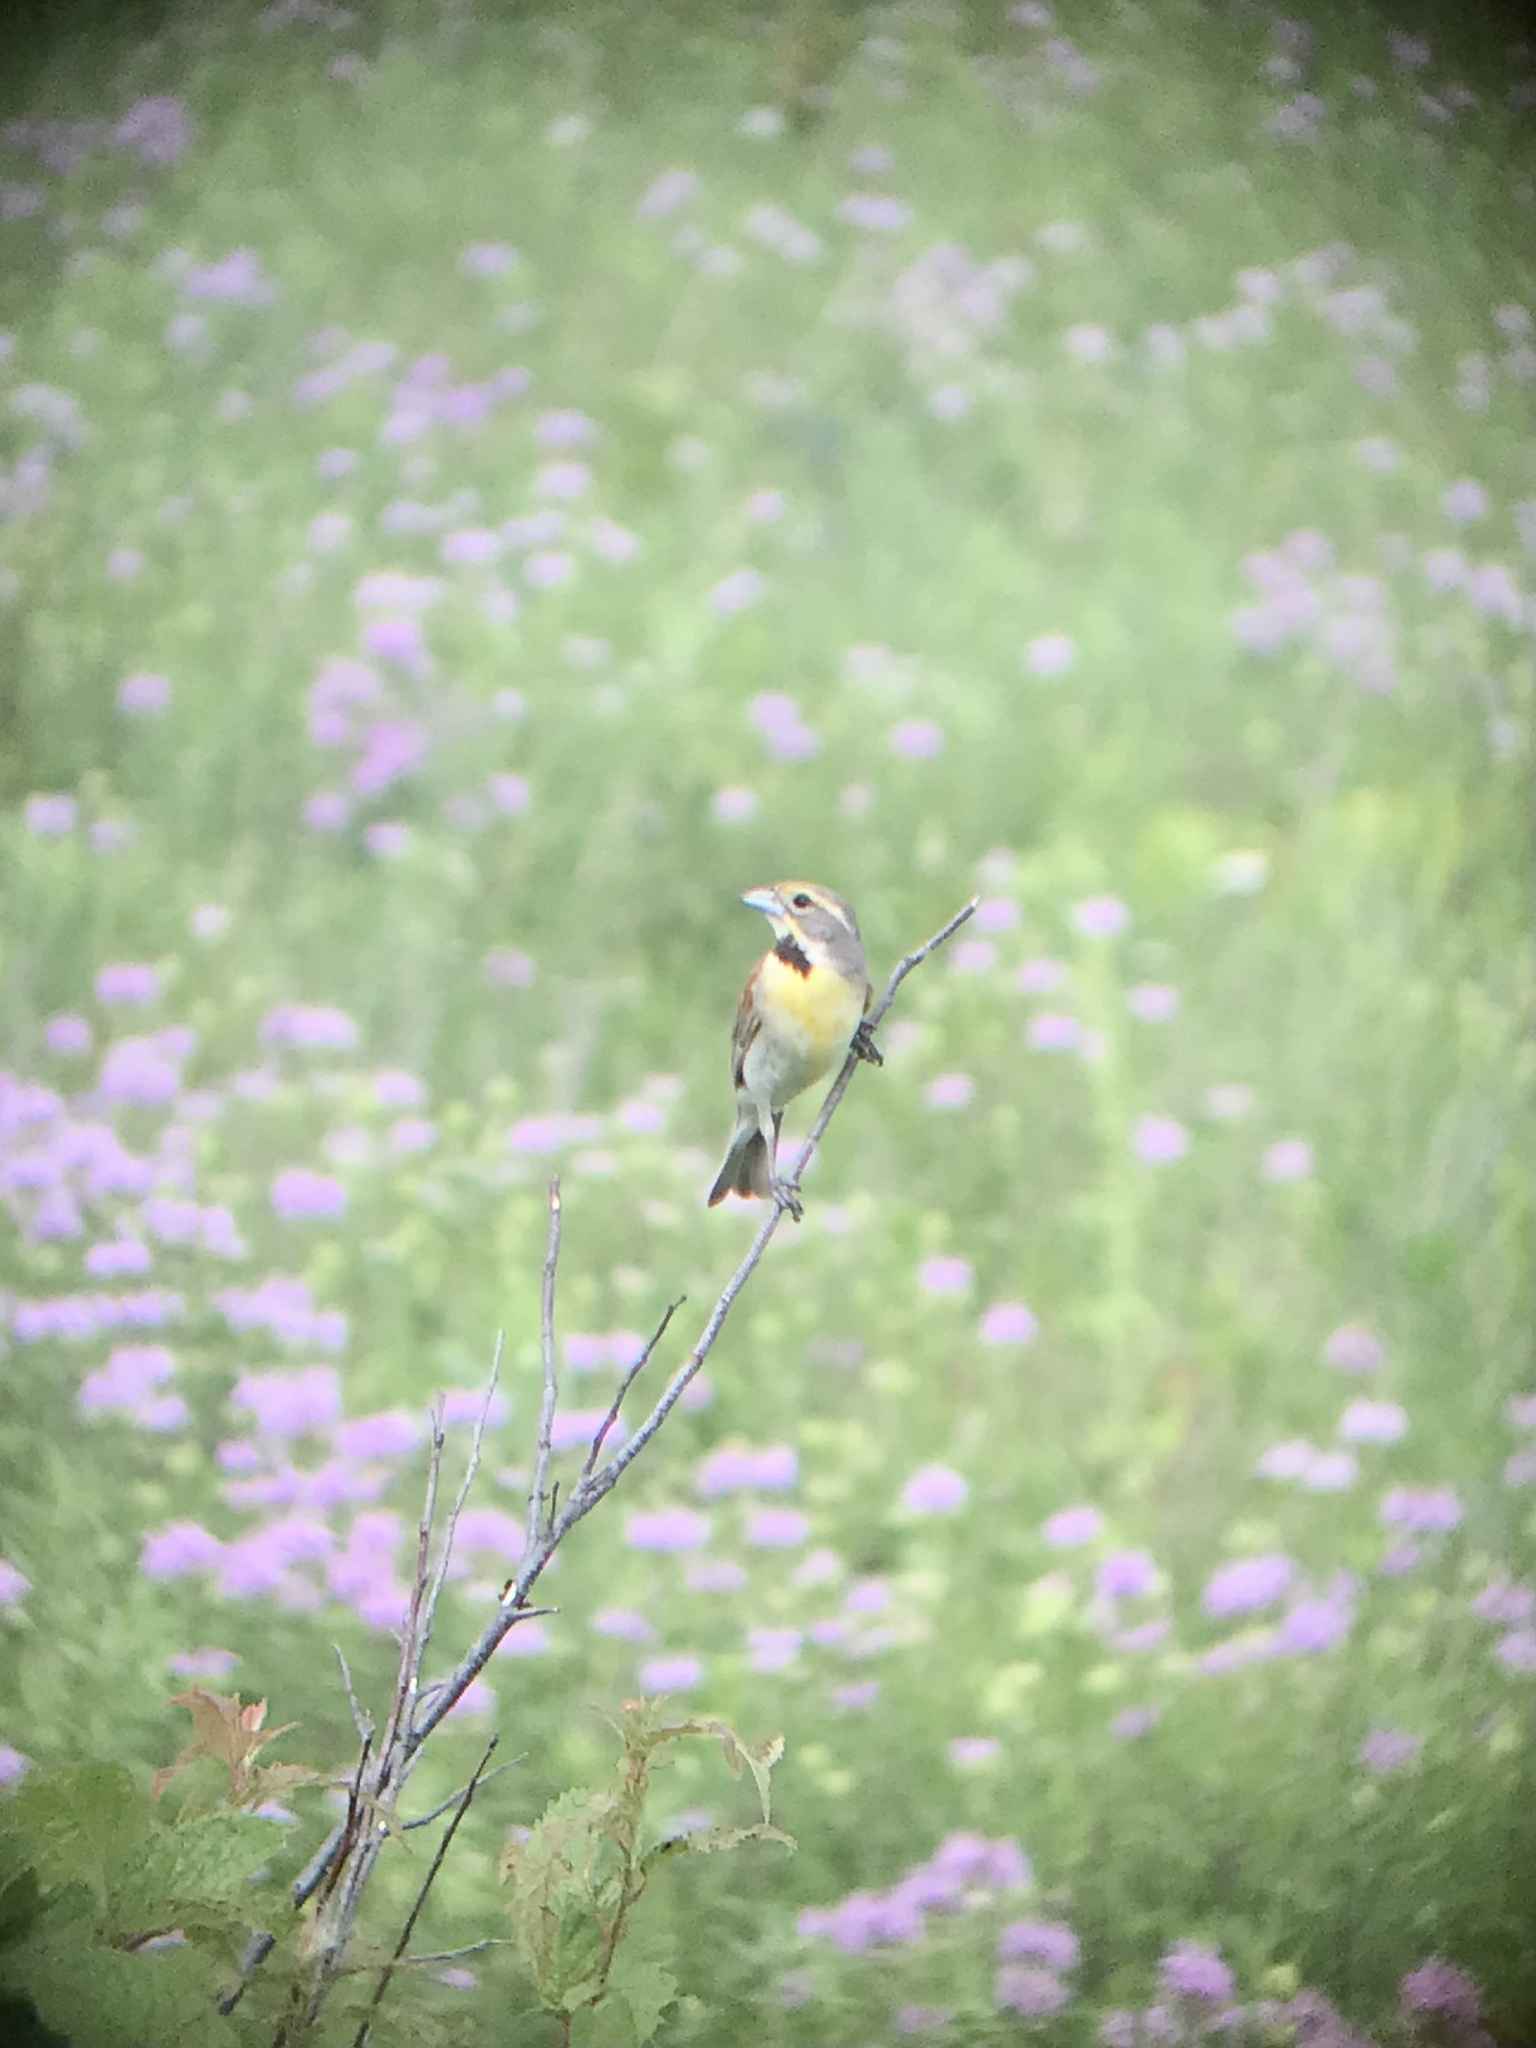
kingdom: Animalia
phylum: Chordata
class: Aves
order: Passeriformes
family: Cardinalidae
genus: Spiza
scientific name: Spiza americana
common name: Dickcissel
